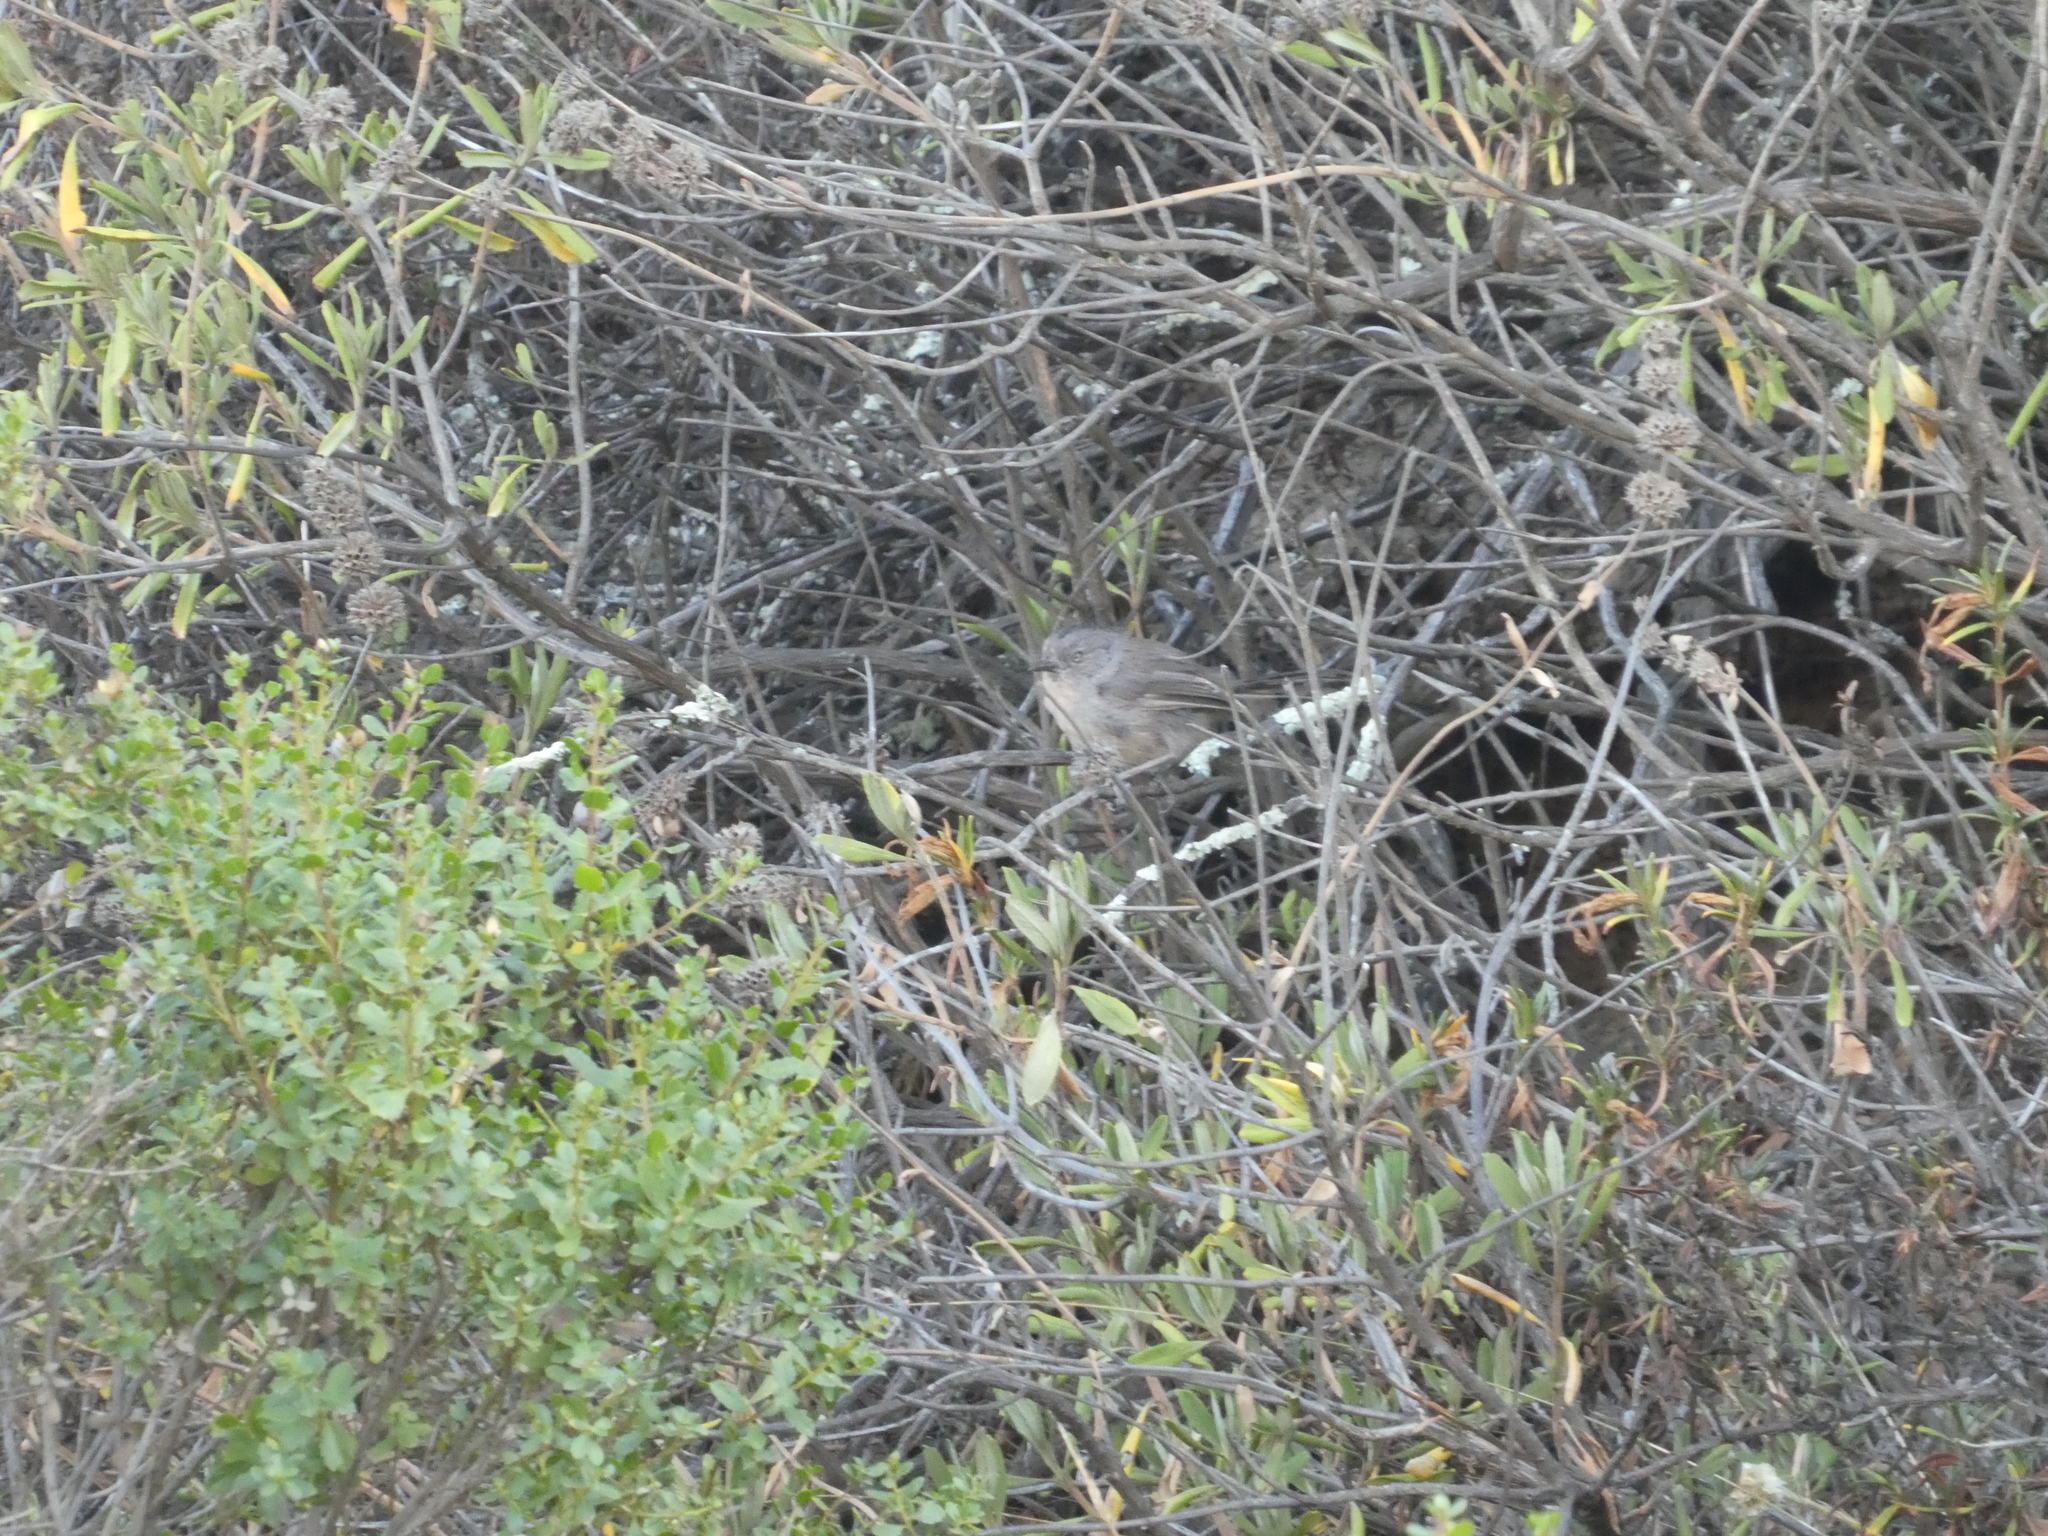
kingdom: Animalia
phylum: Chordata
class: Aves
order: Passeriformes
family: Aegithalidae
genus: Psaltriparus
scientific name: Psaltriparus minimus
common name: American bushtit
